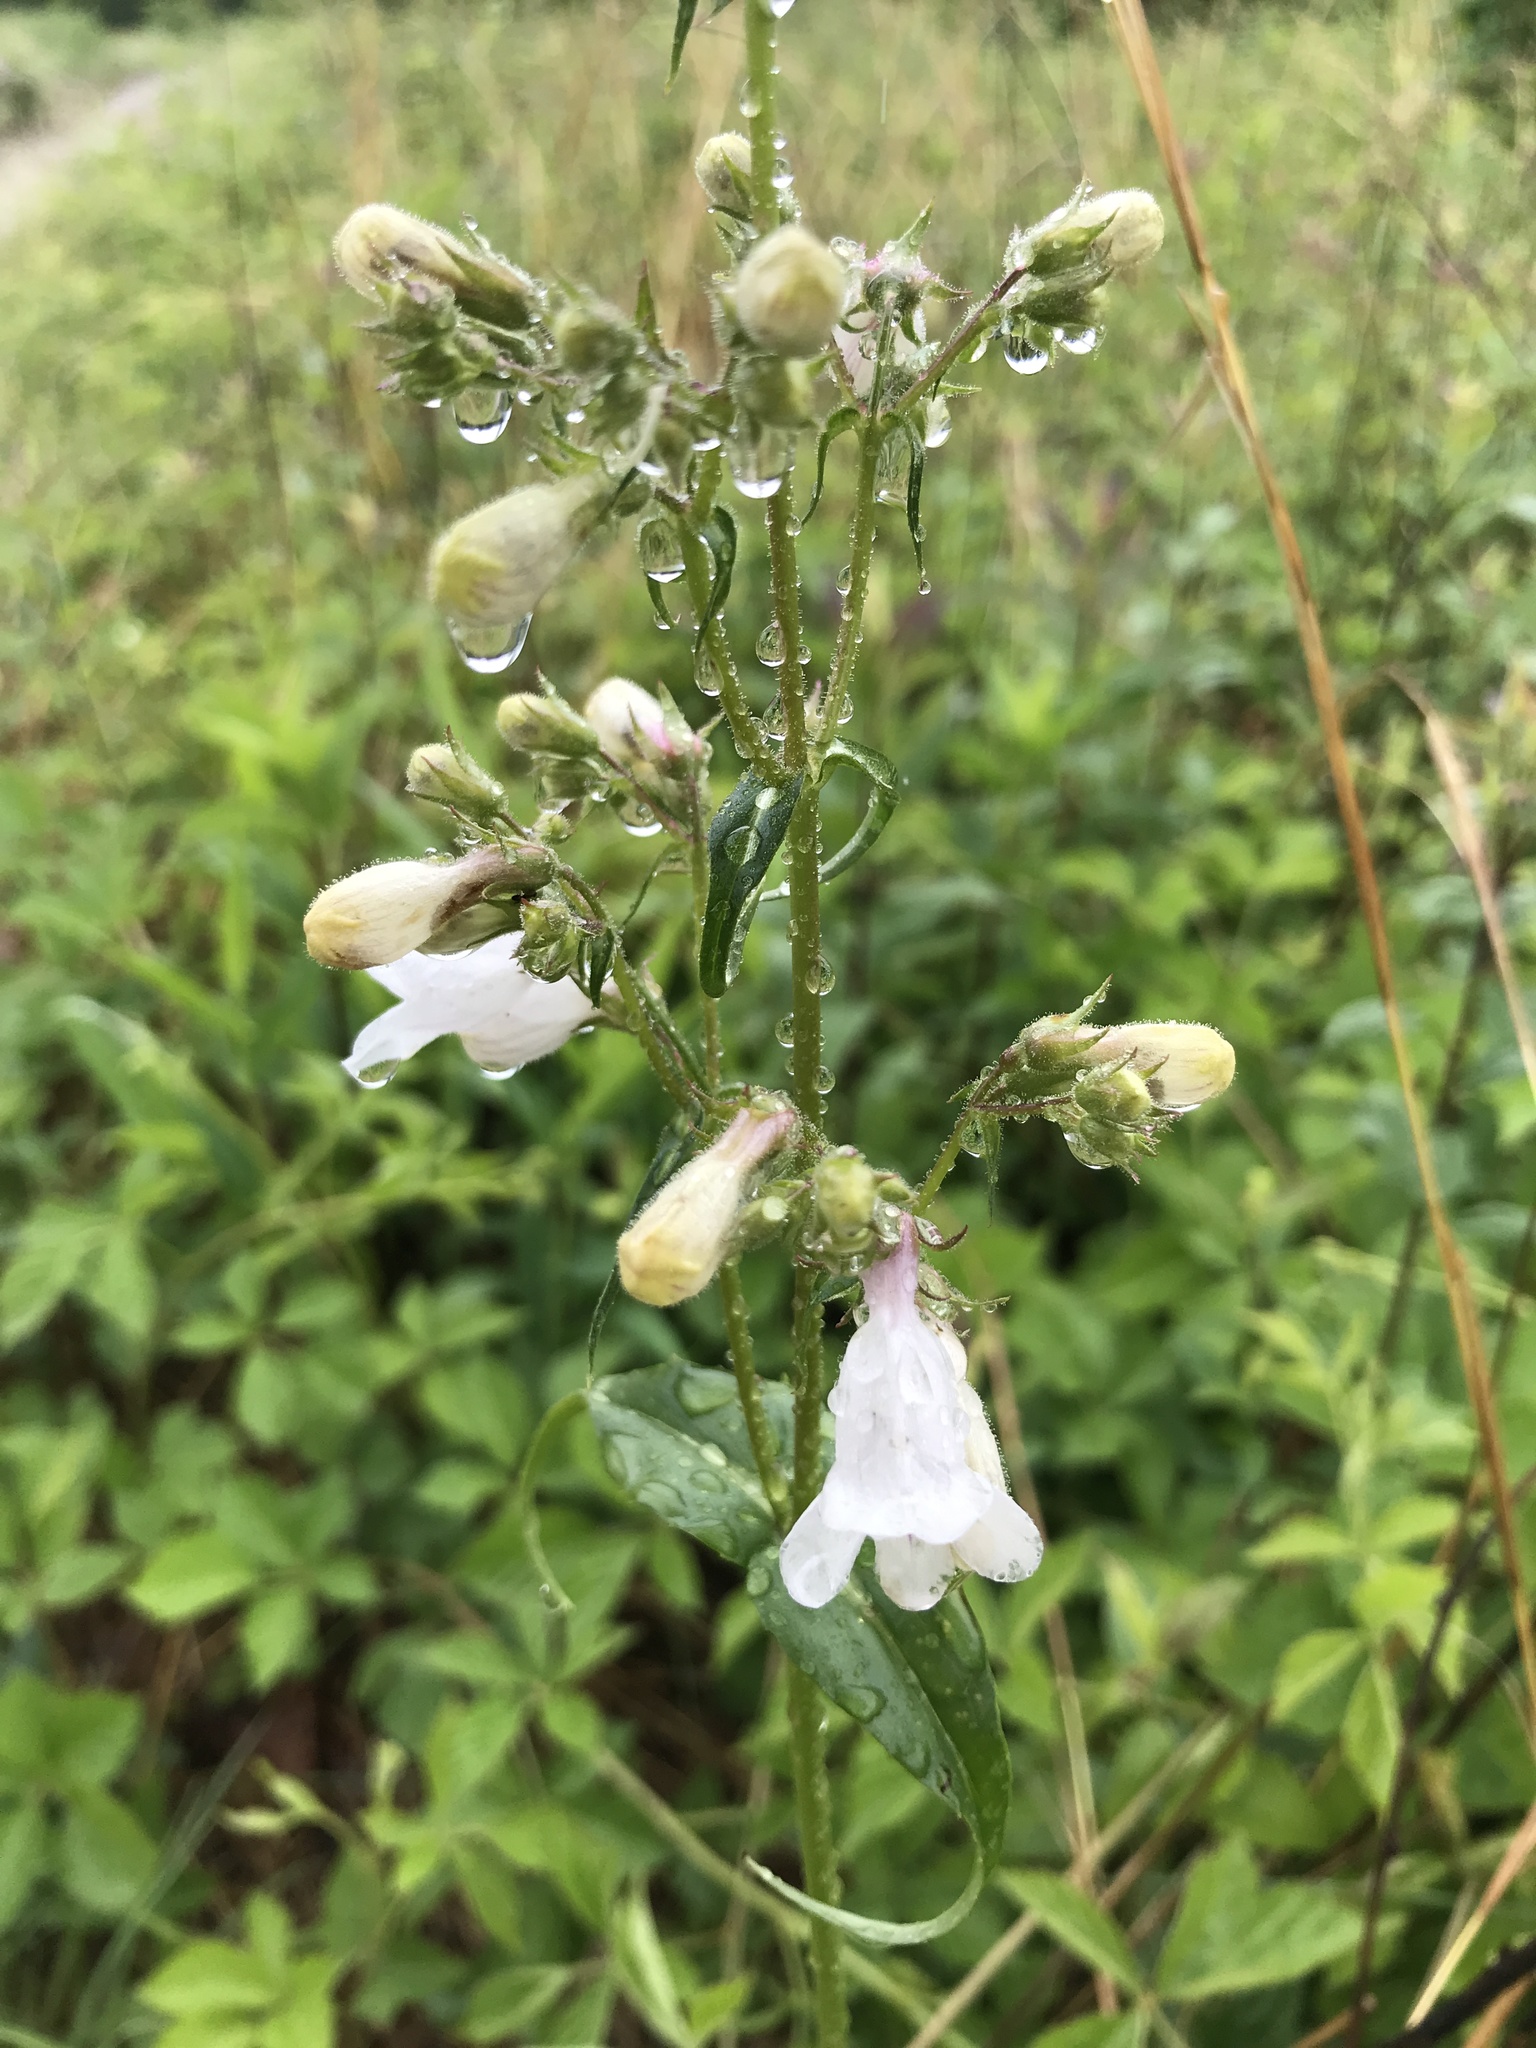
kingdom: Plantae
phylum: Tracheophyta
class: Magnoliopsida
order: Lamiales
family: Plantaginaceae
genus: Penstemon
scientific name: Penstemon digitalis
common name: Foxglove beardtongue
